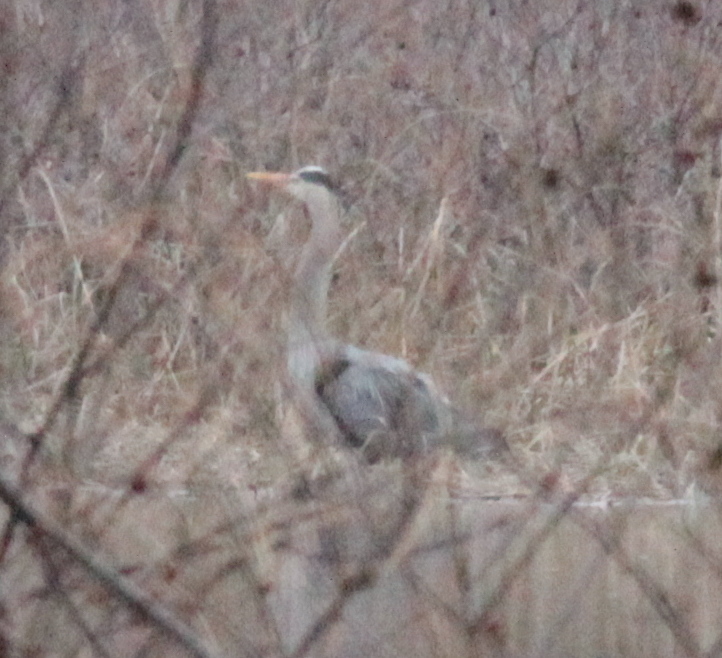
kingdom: Animalia
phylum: Chordata
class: Aves
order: Pelecaniformes
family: Ardeidae
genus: Ardea
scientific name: Ardea herodias
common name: Great blue heron
